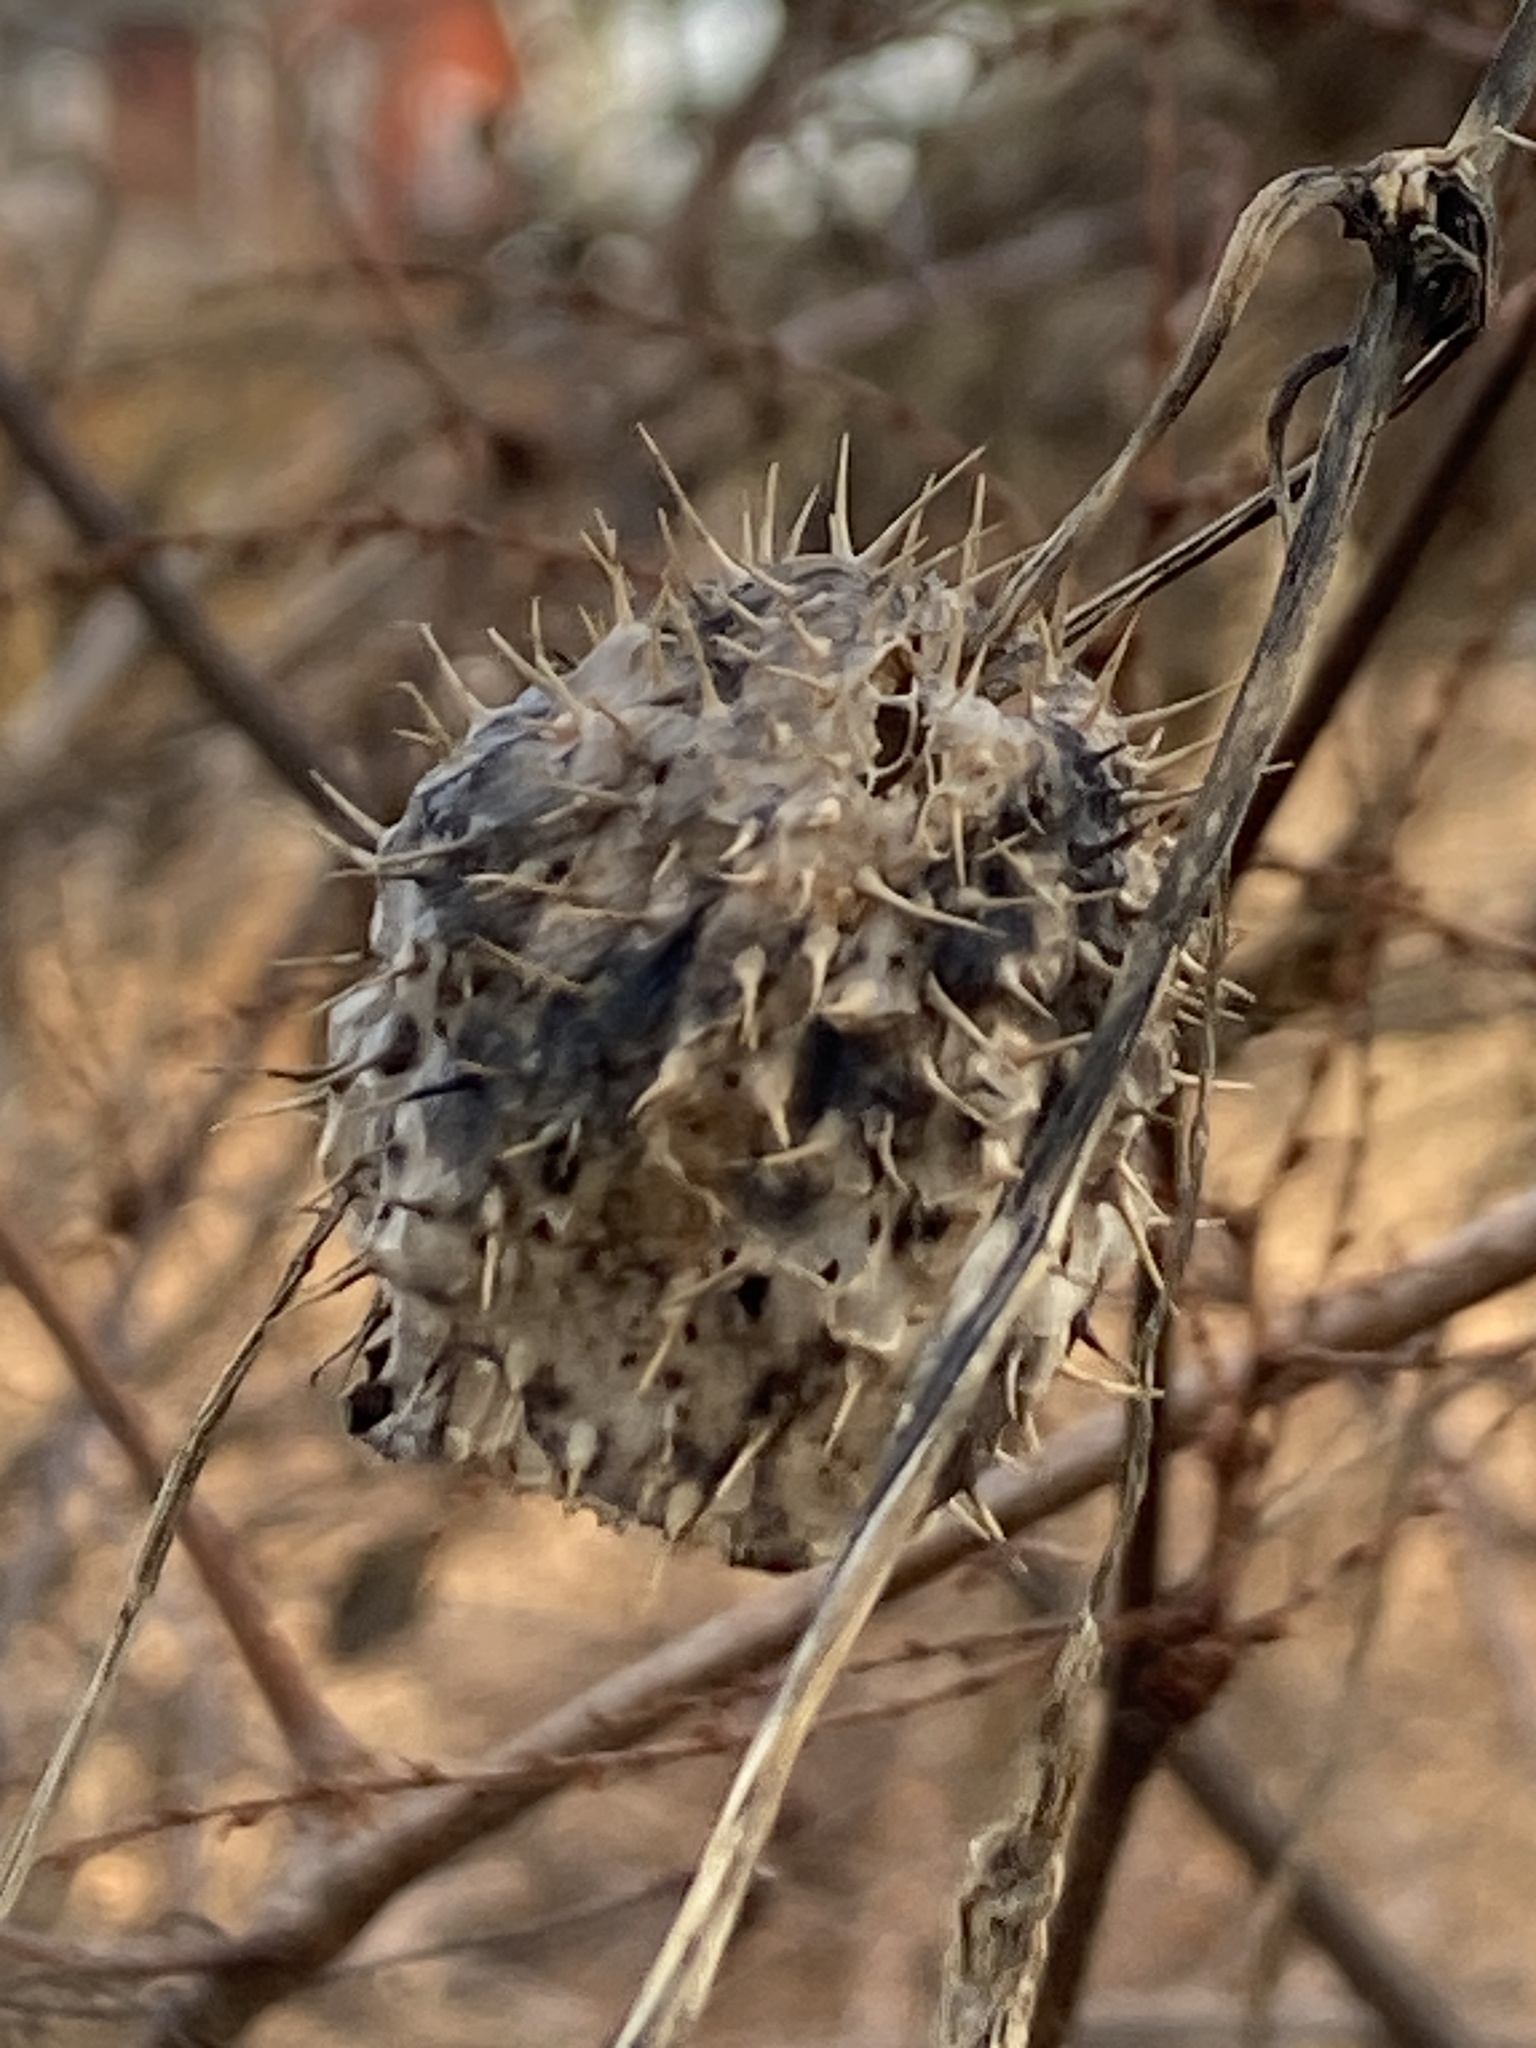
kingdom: Plantae
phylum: Tracheophyta
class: Magnoliopsida
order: Cucurbitales
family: Cucurbitaceae
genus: Echinocystis
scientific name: Echinocystis lobata
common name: Wild cucumber
